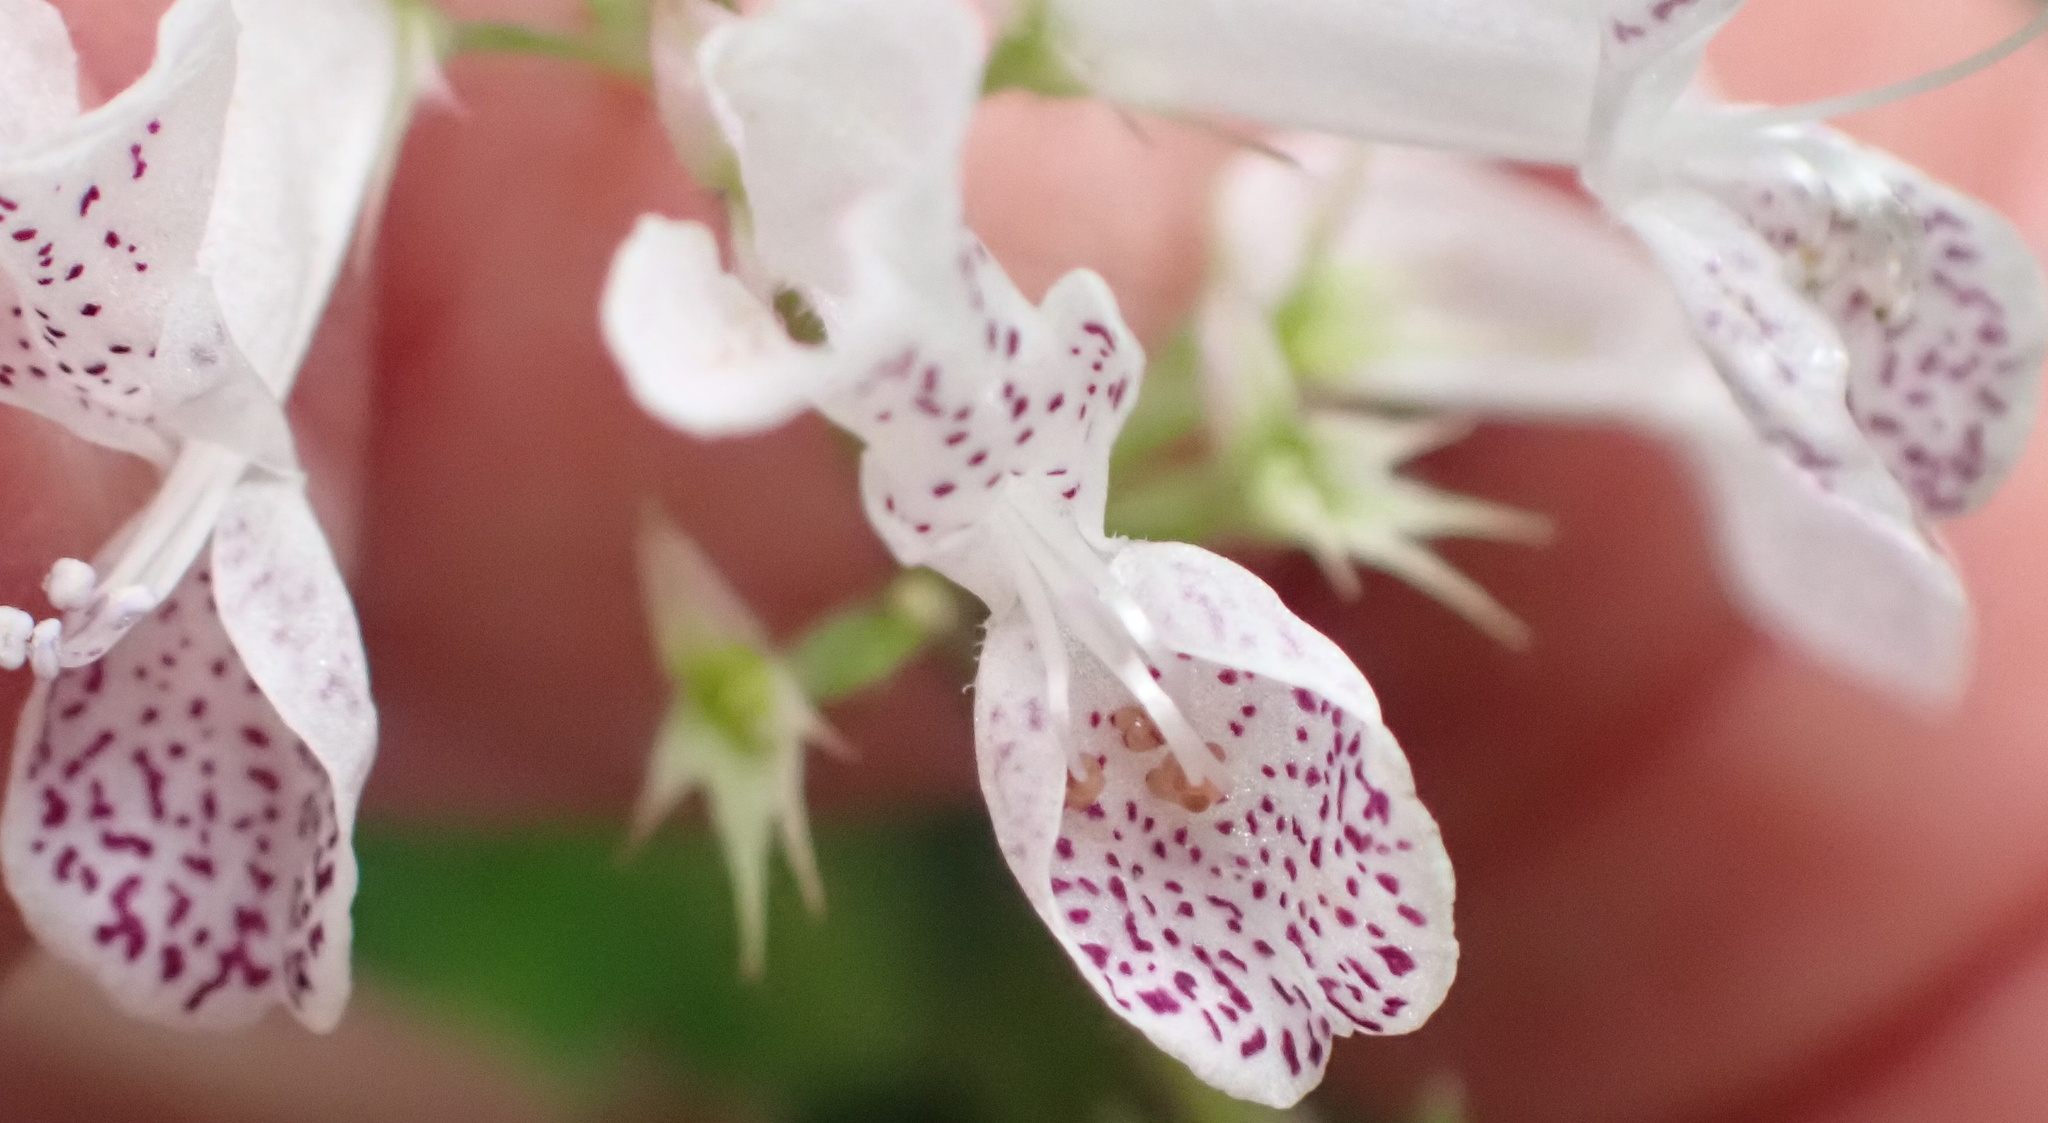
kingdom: Plantae
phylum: Tracheophyta
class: Magnoliopsida
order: Lamiales
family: Lamiaceae
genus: Plectranthus
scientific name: Plectranthus verticillatus
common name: Whorled plectranthus
